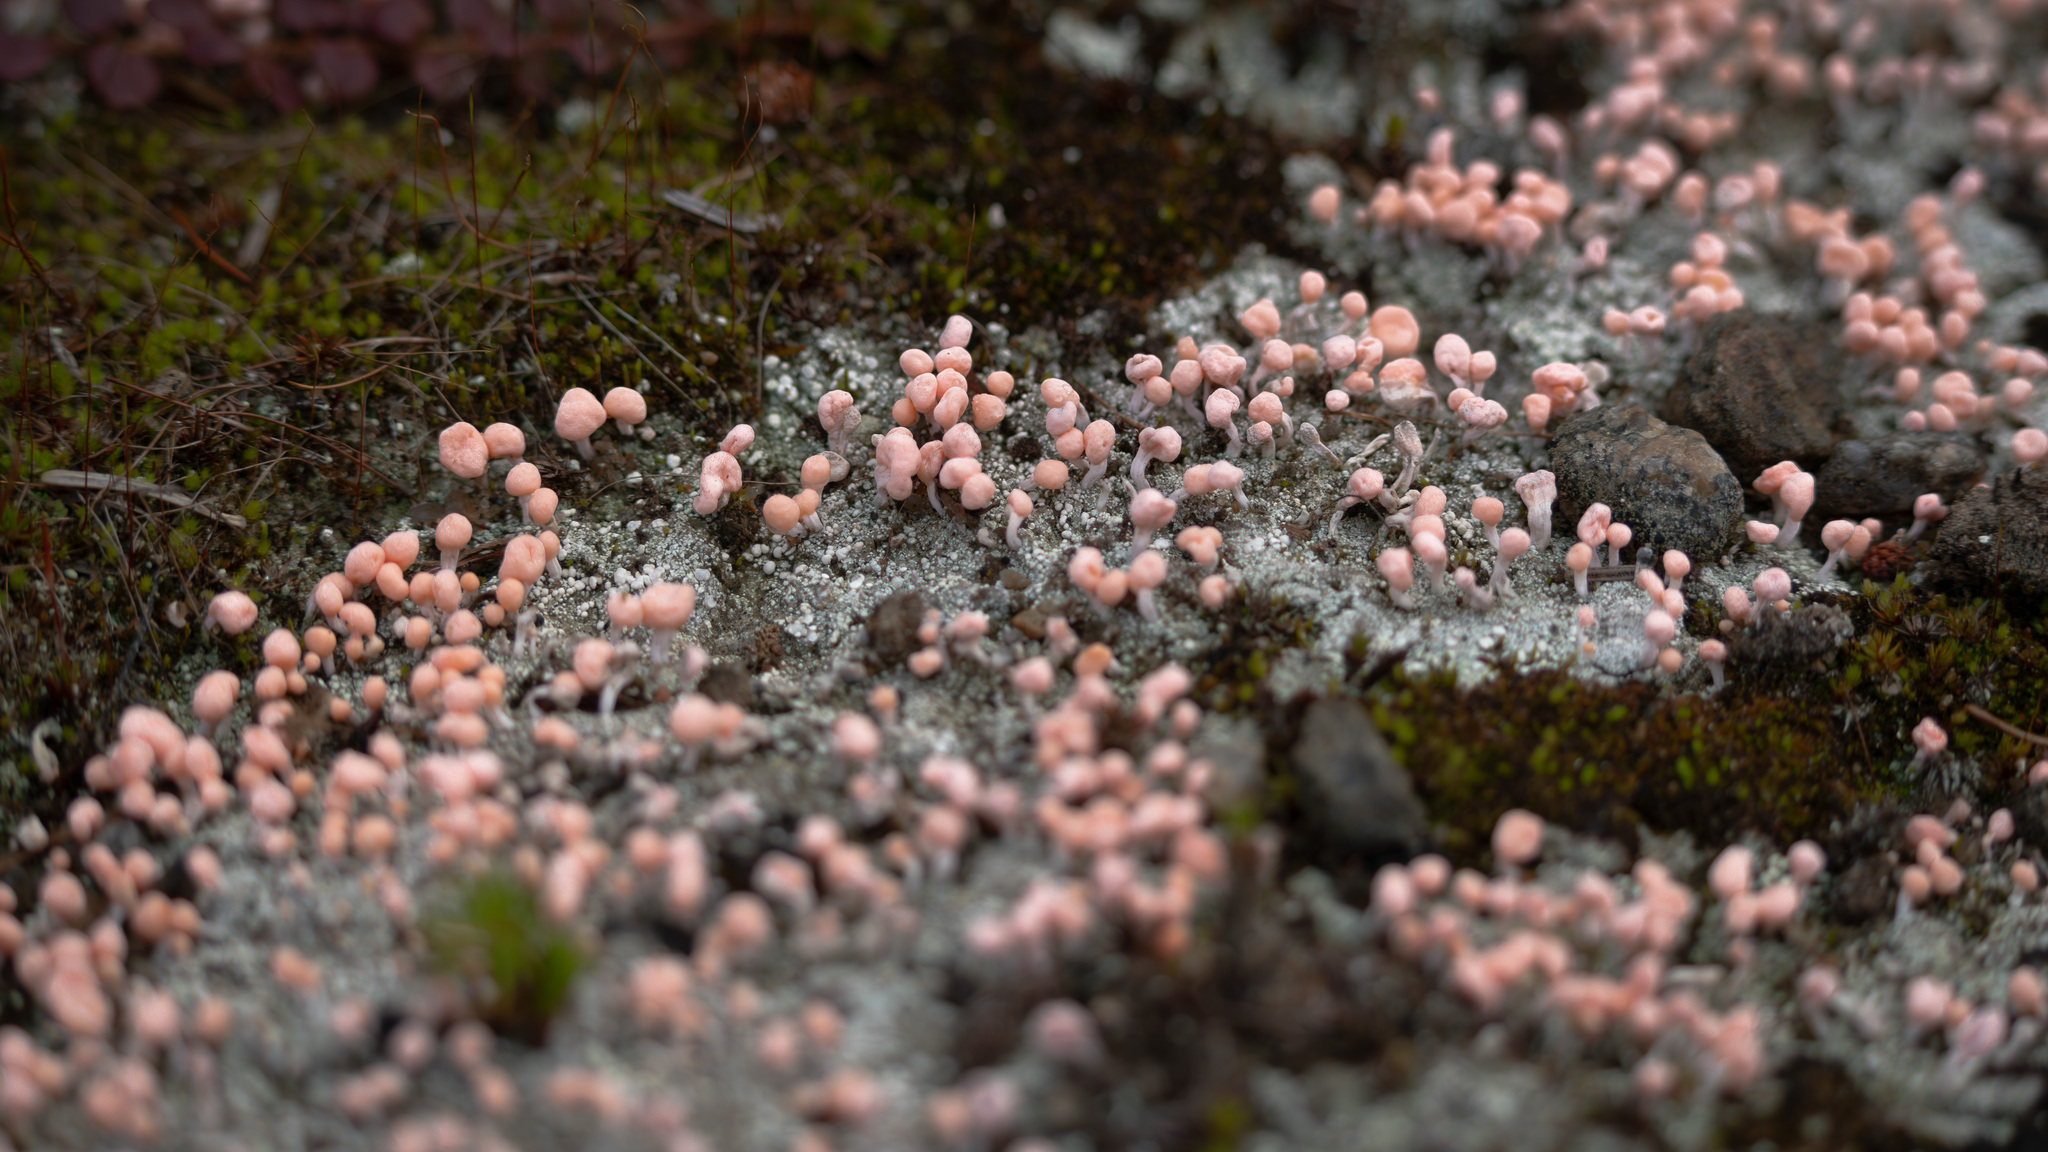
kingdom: Fungi
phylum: Ascomycota
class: Lecanoromycetes
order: Pertusariales
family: Icmadophilaceae
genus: Dibaeis
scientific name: Dibaeis baeomyces
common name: Pink earth lichen
